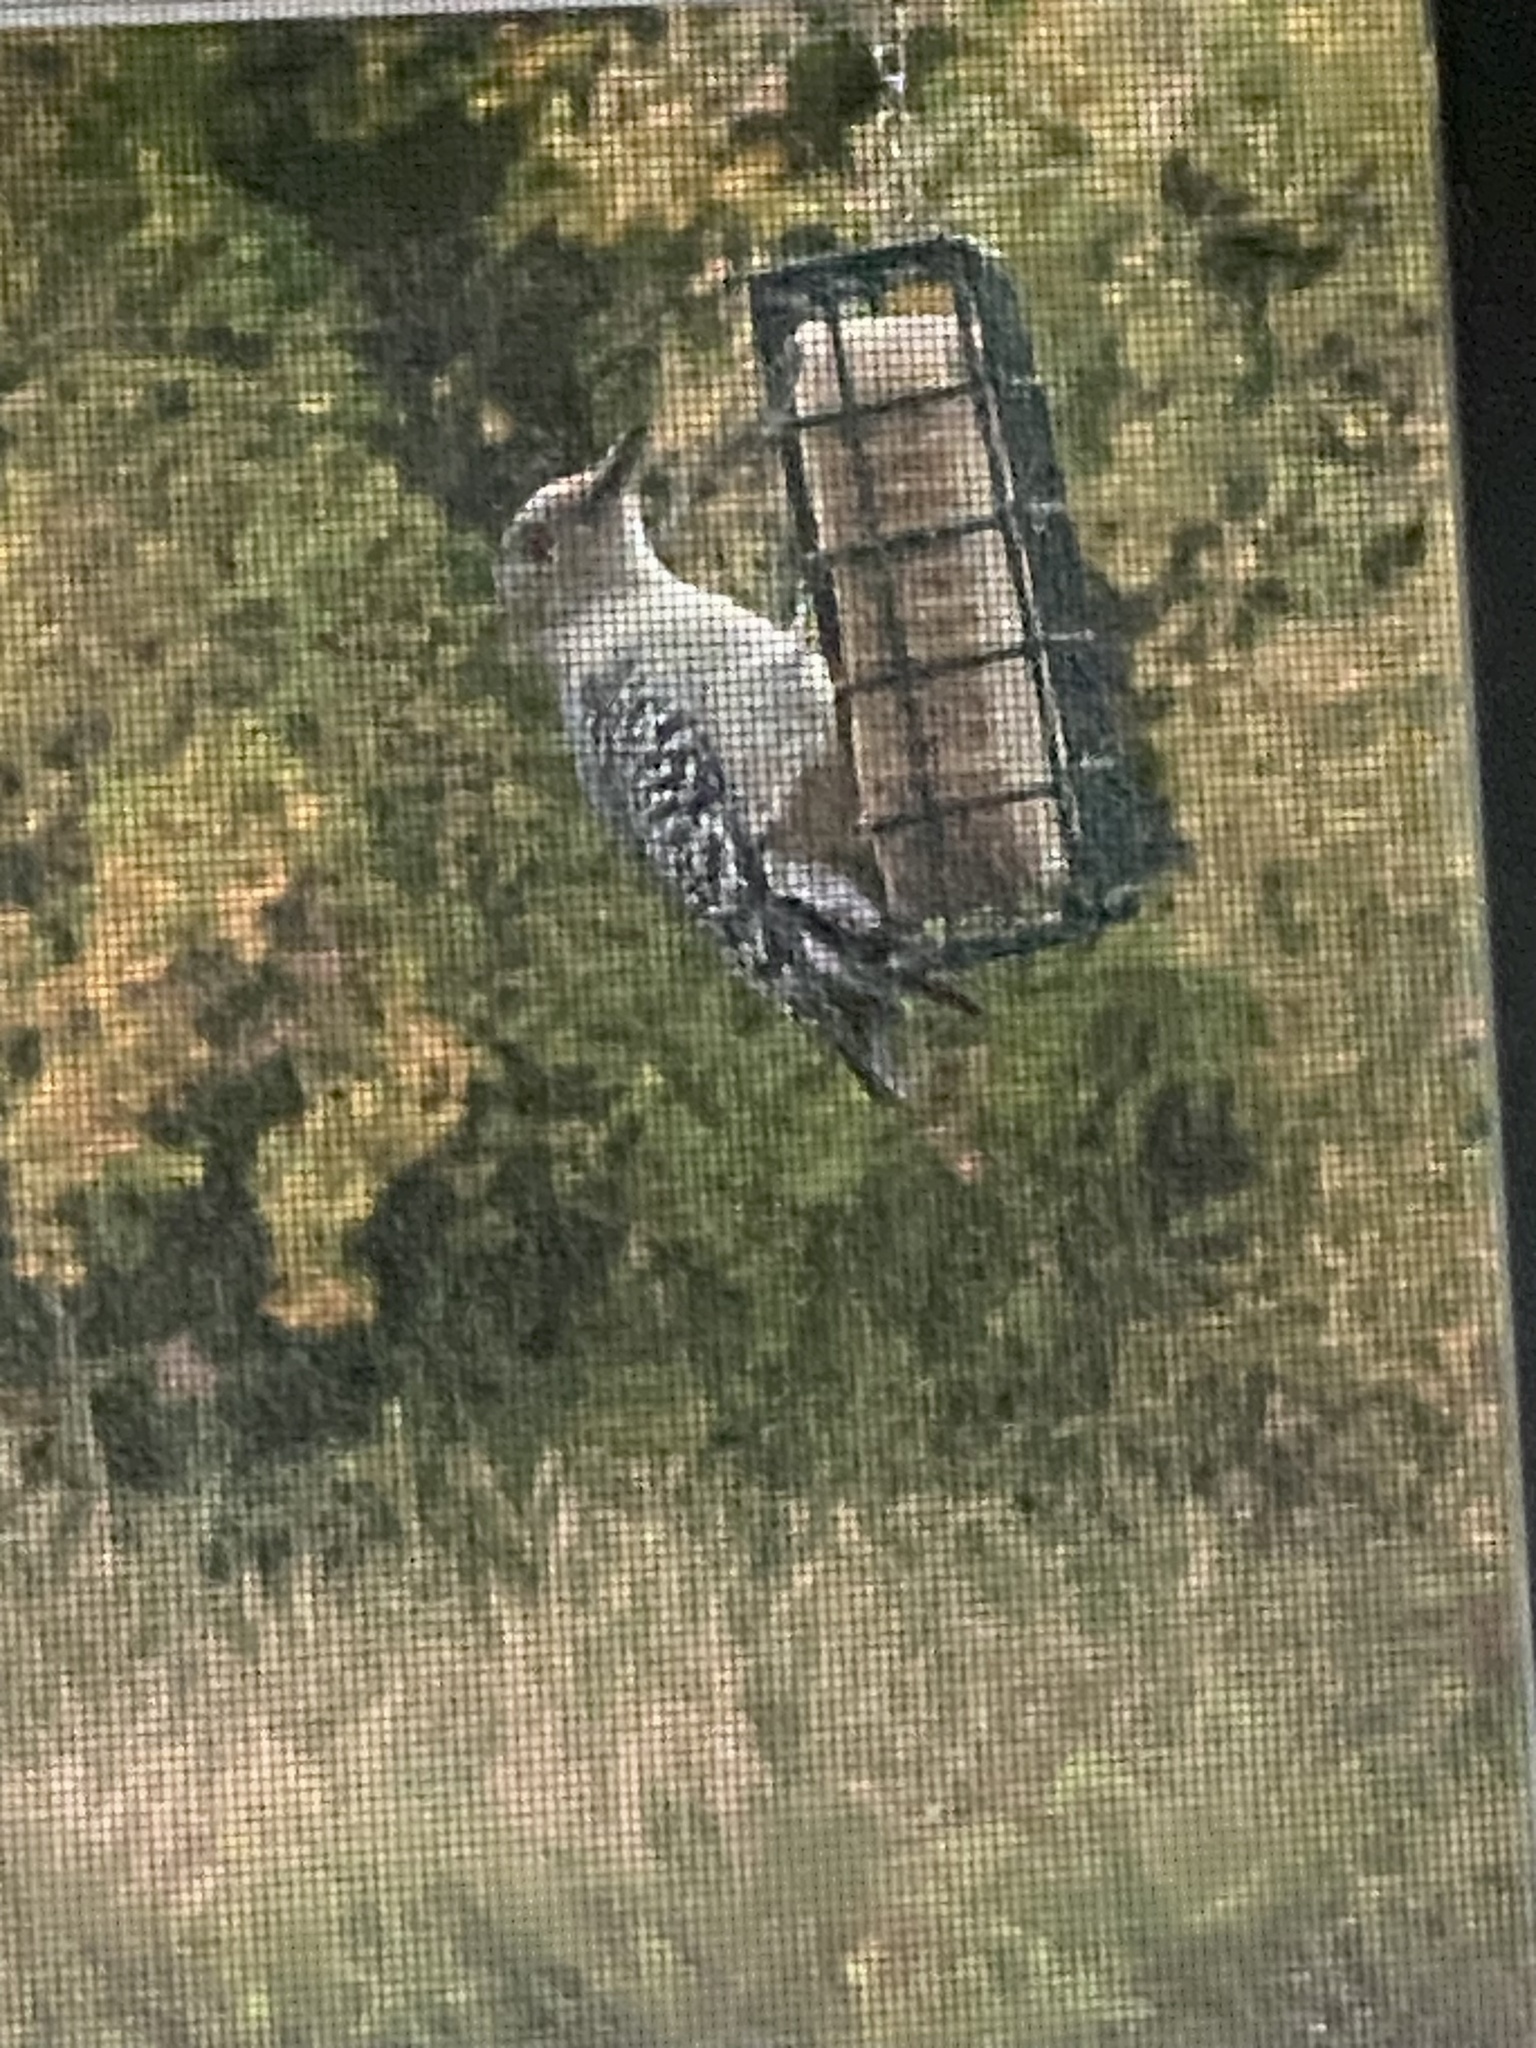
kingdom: Animalia
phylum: Chordata
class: Aves
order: Piciformes
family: Picidae
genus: Melanerpes
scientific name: Melanerpes carolinus
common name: Red-bellied woodpecker
